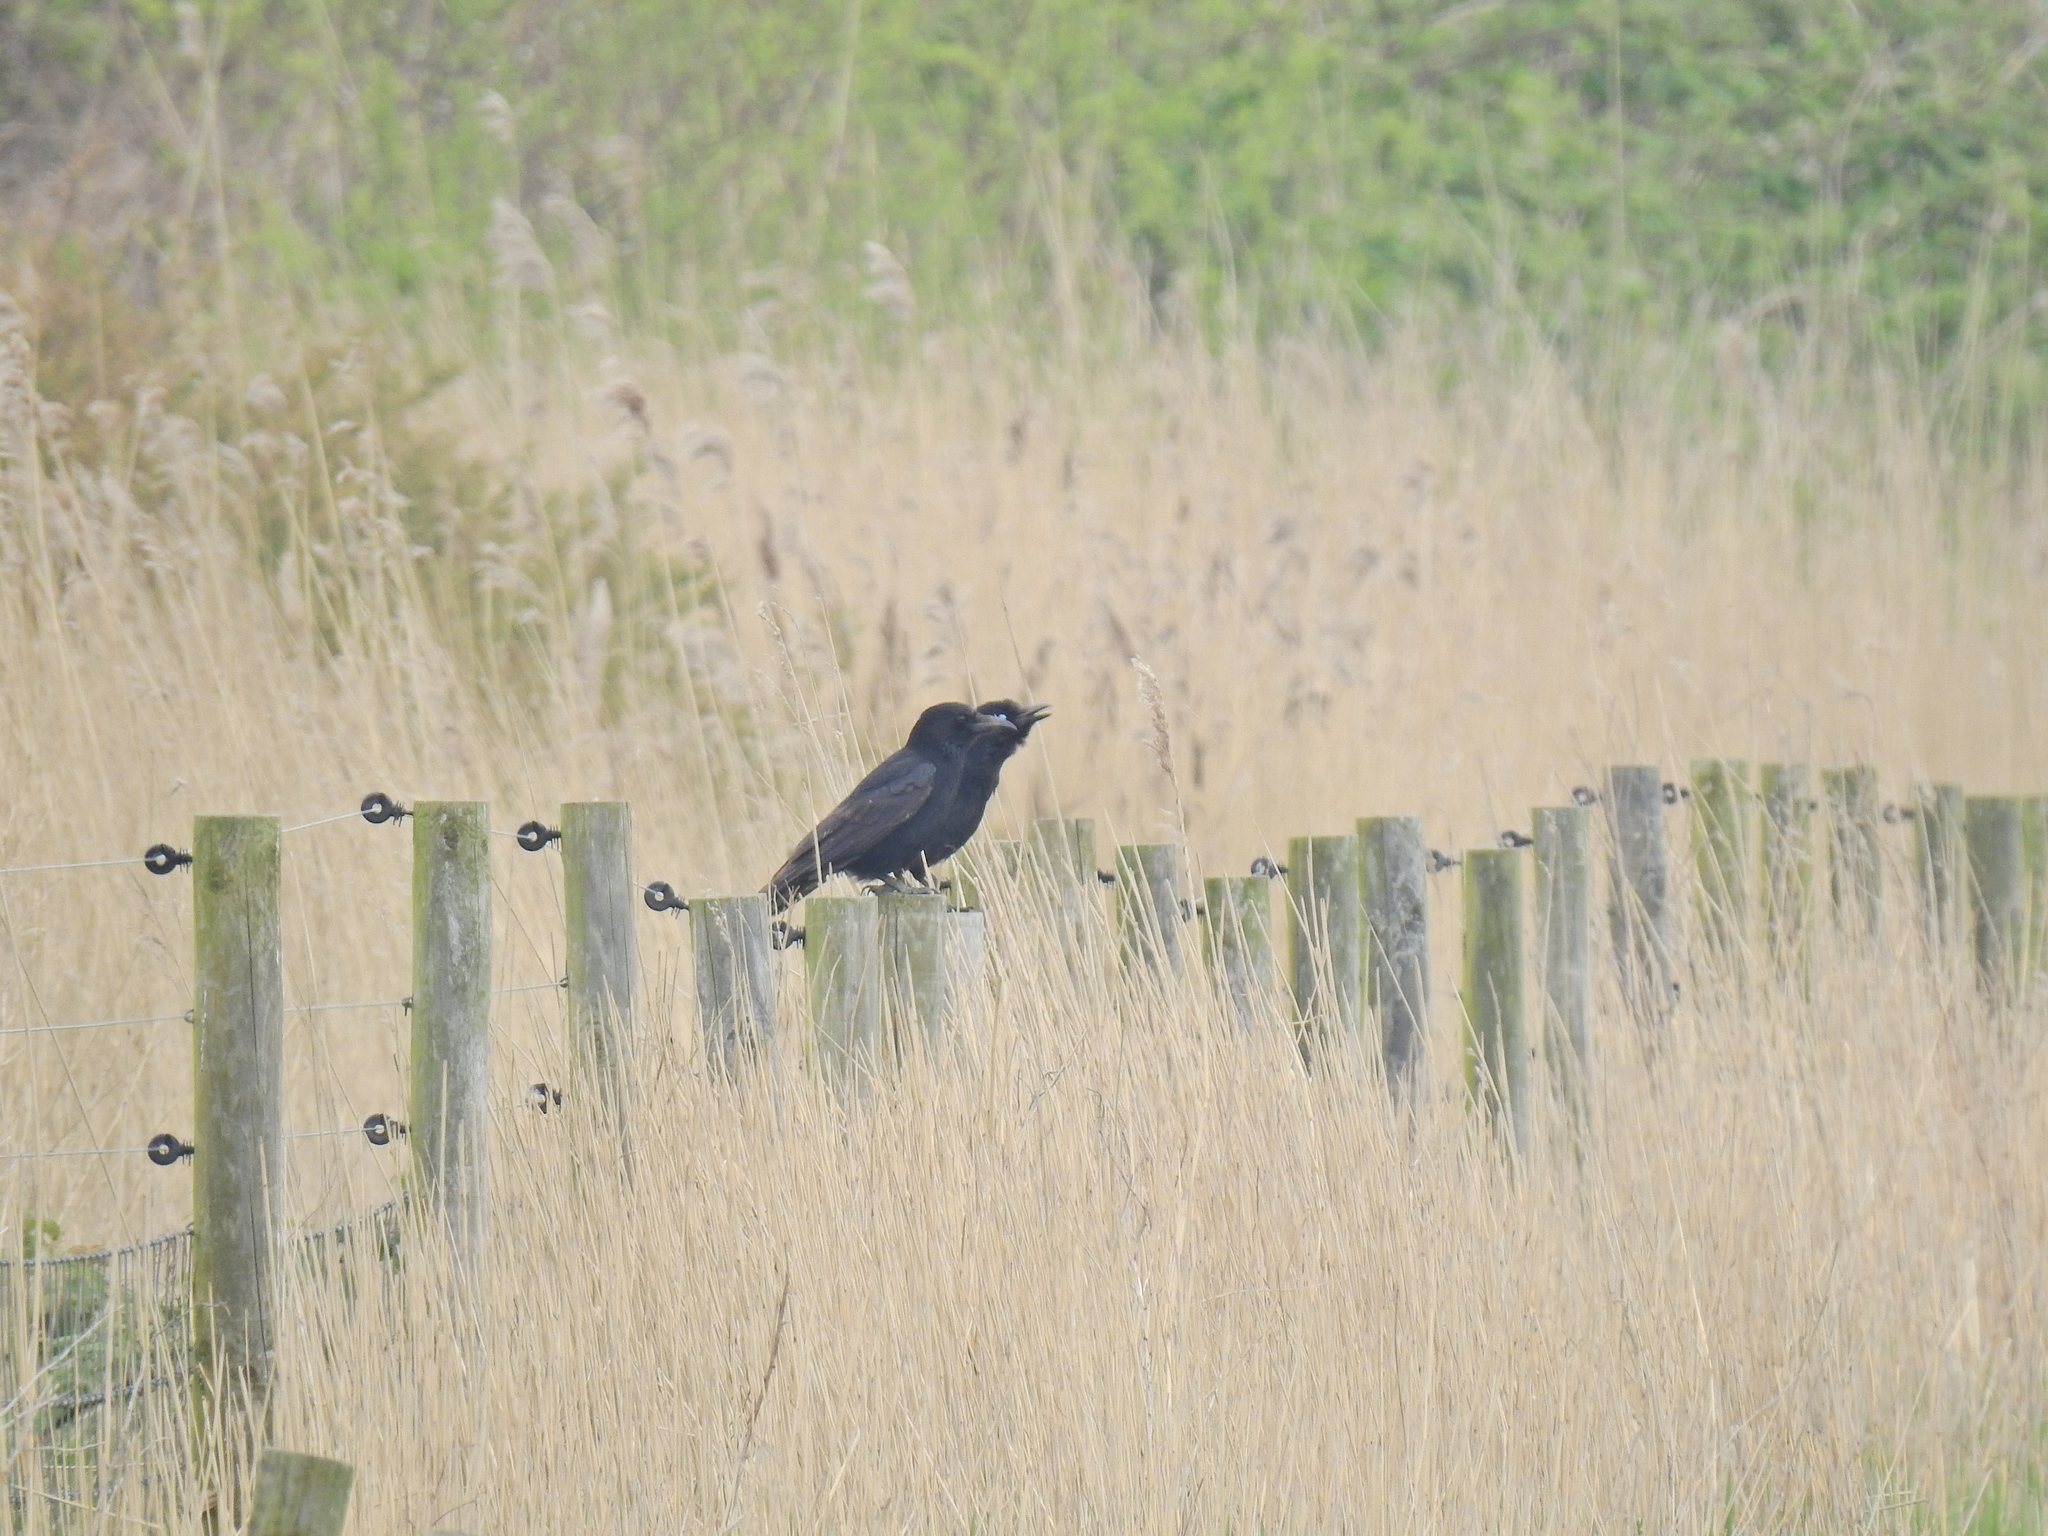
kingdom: Animalia
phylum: Chordata
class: Aves
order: Passeriformes
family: Corvidae
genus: Corvus
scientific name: Corvus corone
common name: Carrion crow
